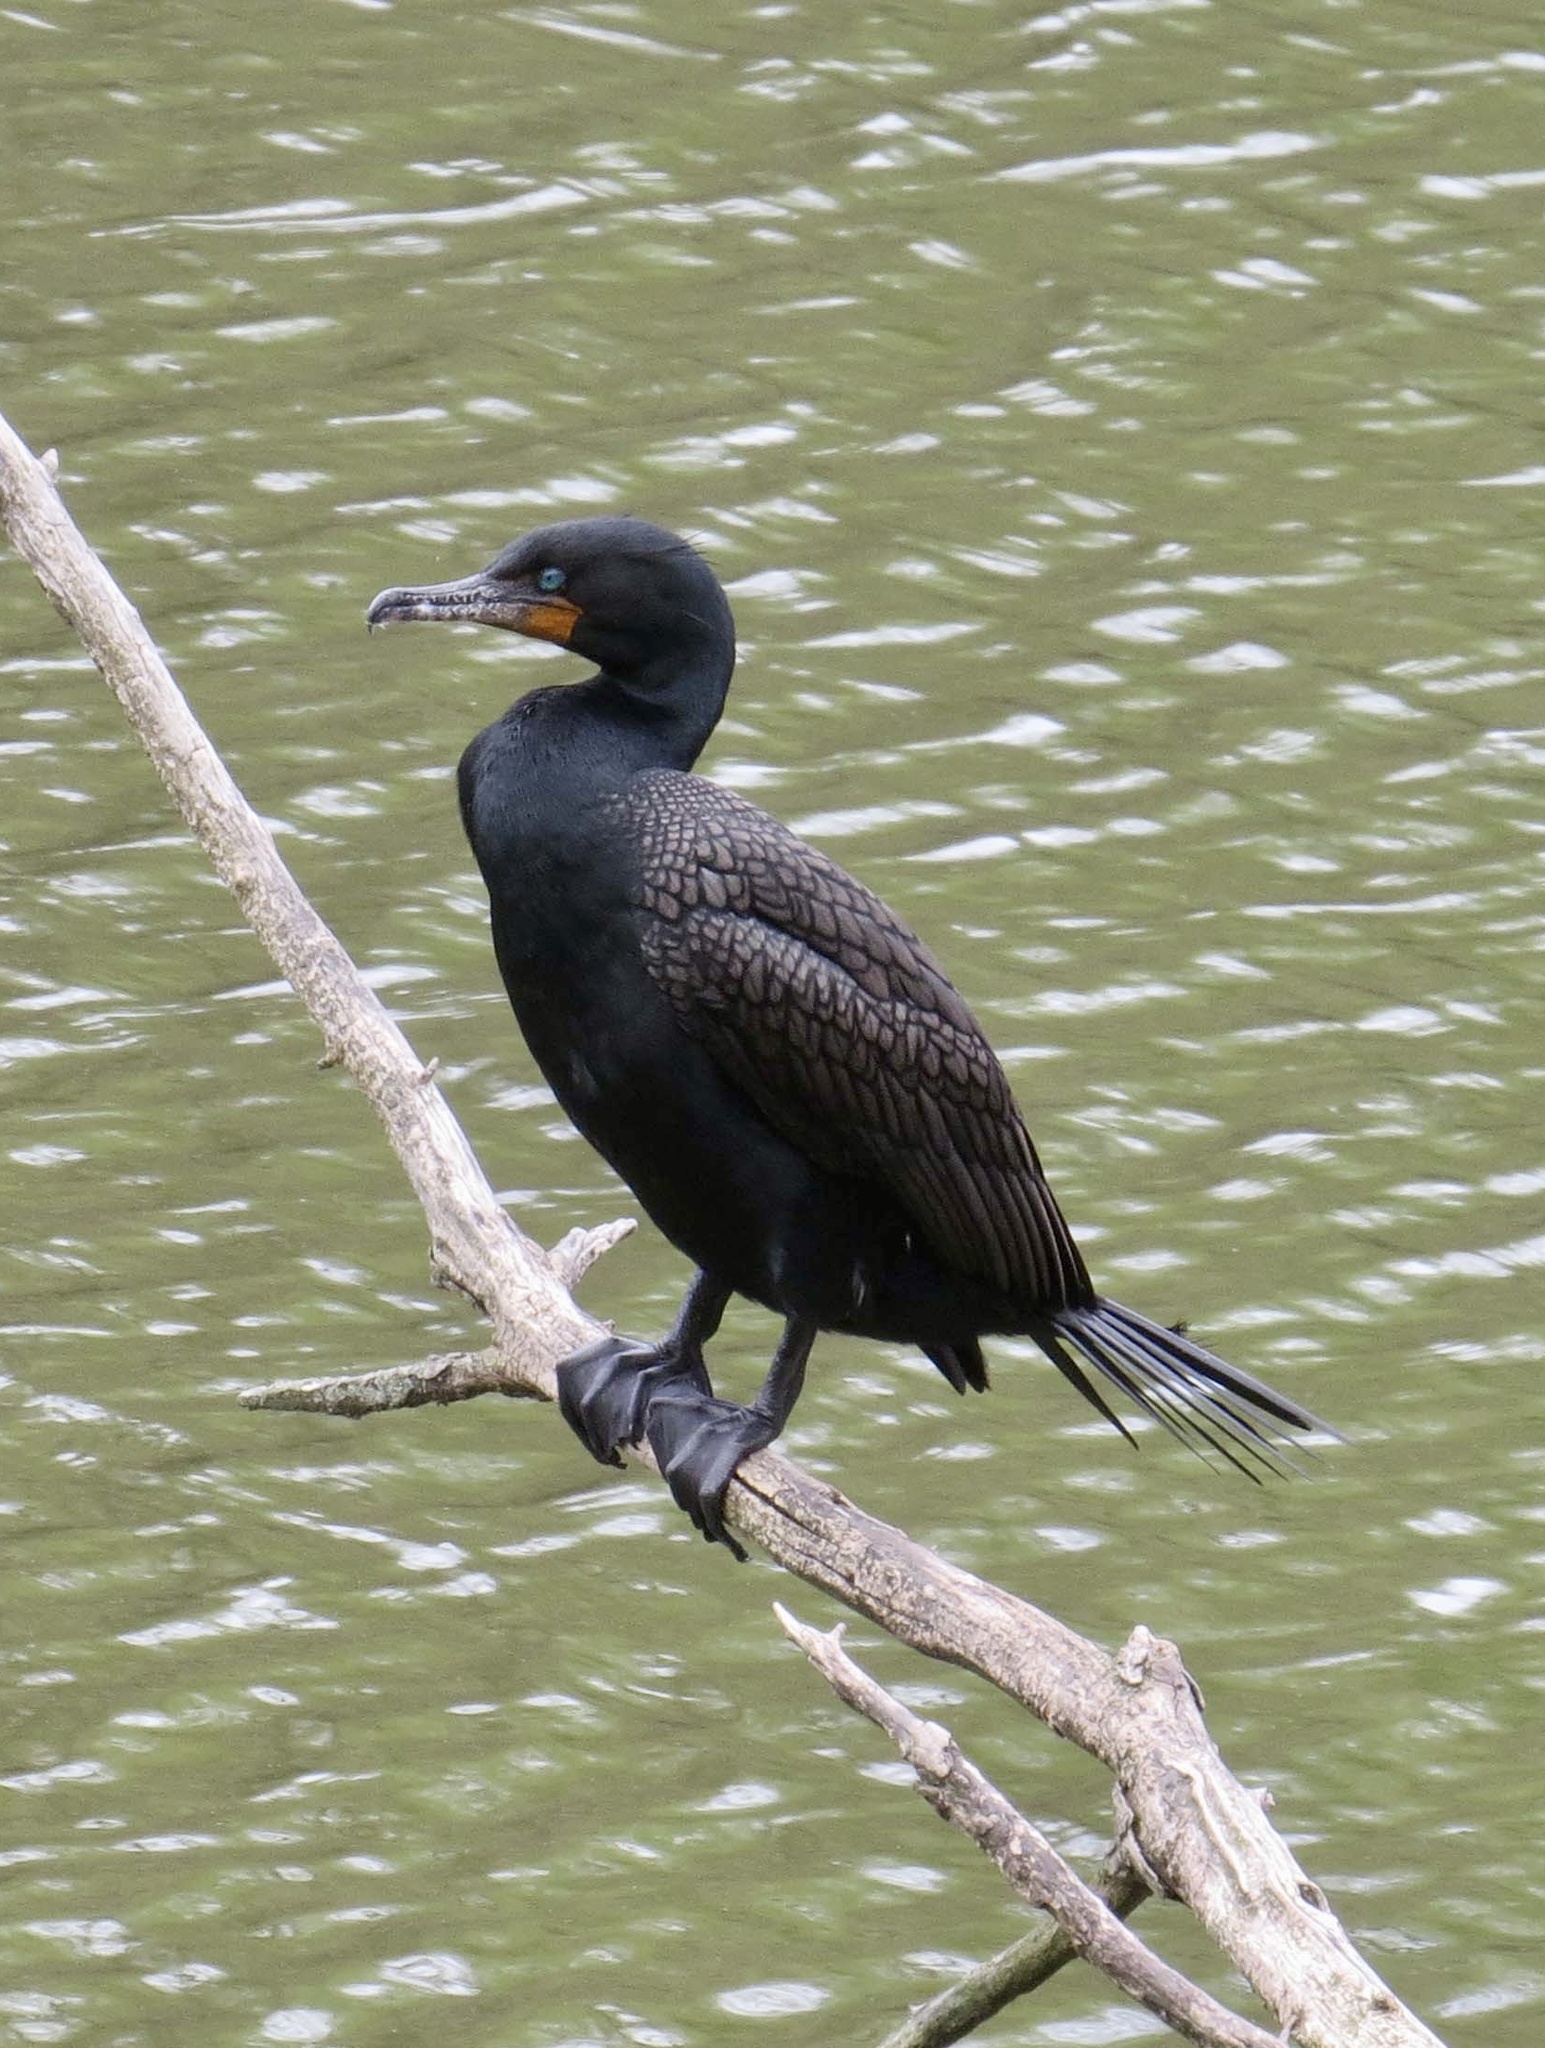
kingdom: Animalia
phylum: Chordata
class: Aves
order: Suliformes
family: Phalacrocoracidae
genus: Phalacrocorax
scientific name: Phalacrocorax auritus
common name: Double-crested cormorant
